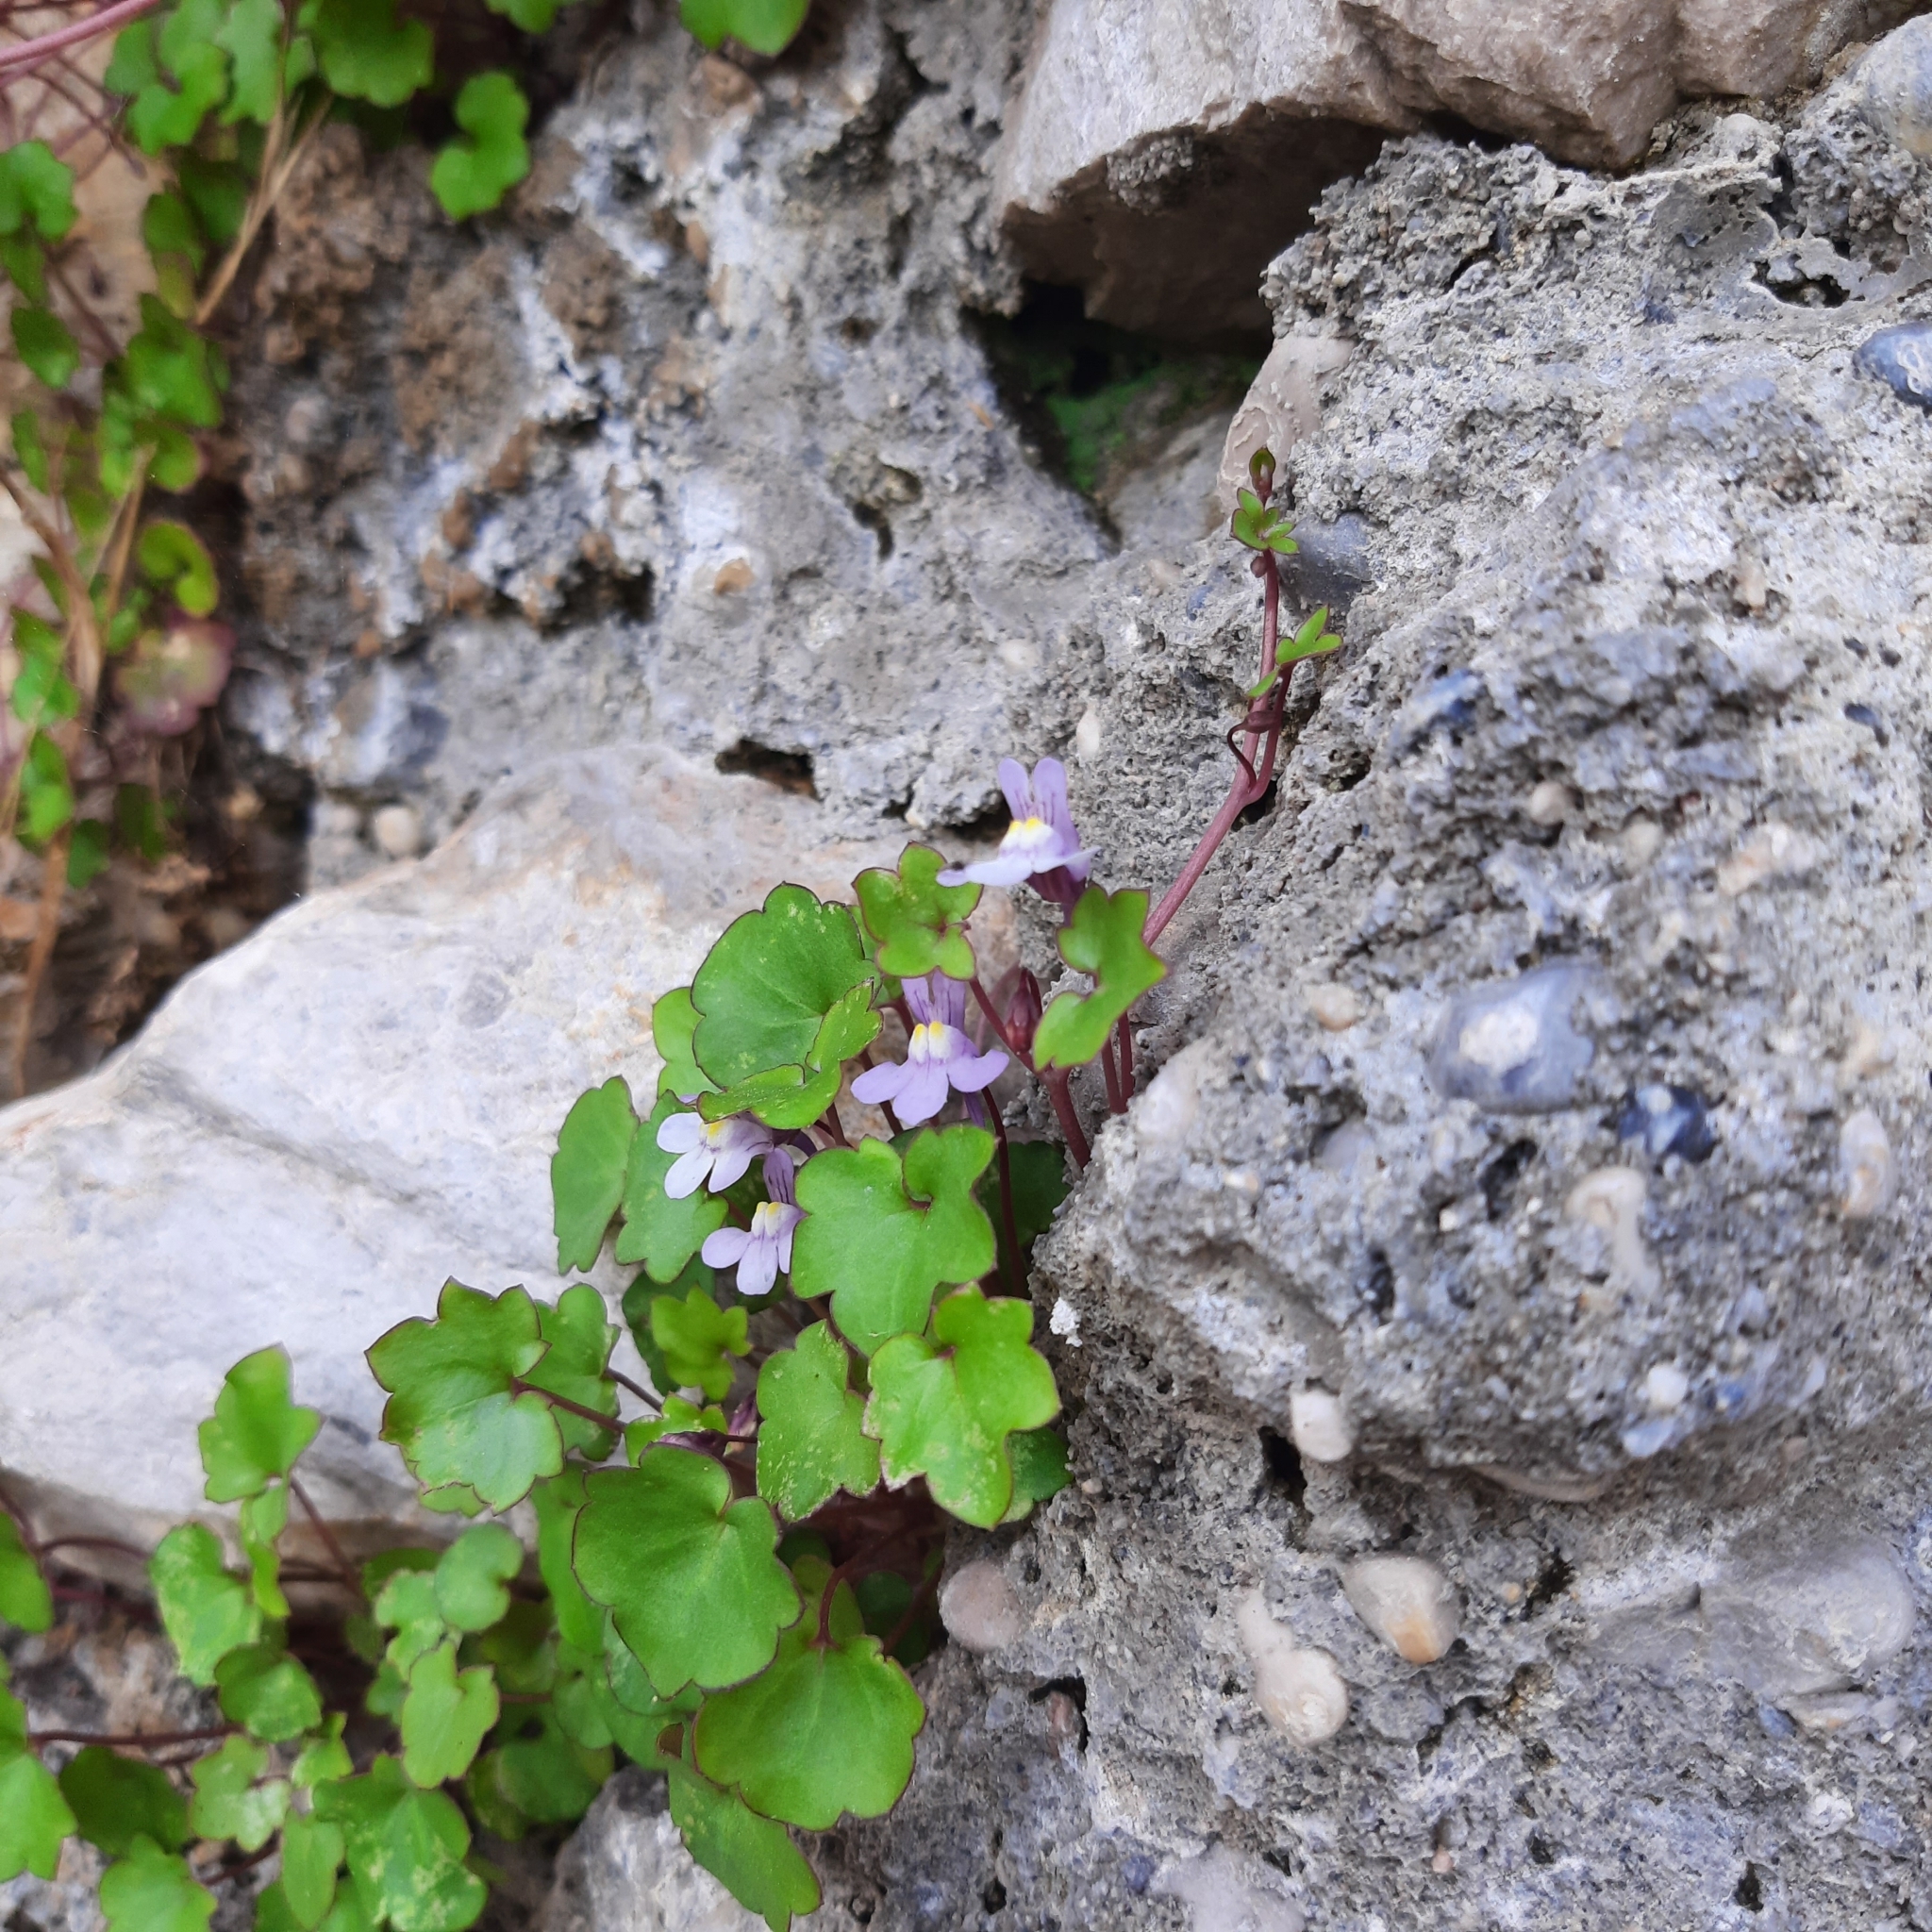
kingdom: Plantae
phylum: Tracheophyta
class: Magnoliopsida
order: Lamiales
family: Plantaginaceae
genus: Cymbalaria
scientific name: Cymbalaria muralis
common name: Ivy-leaved toadflax
